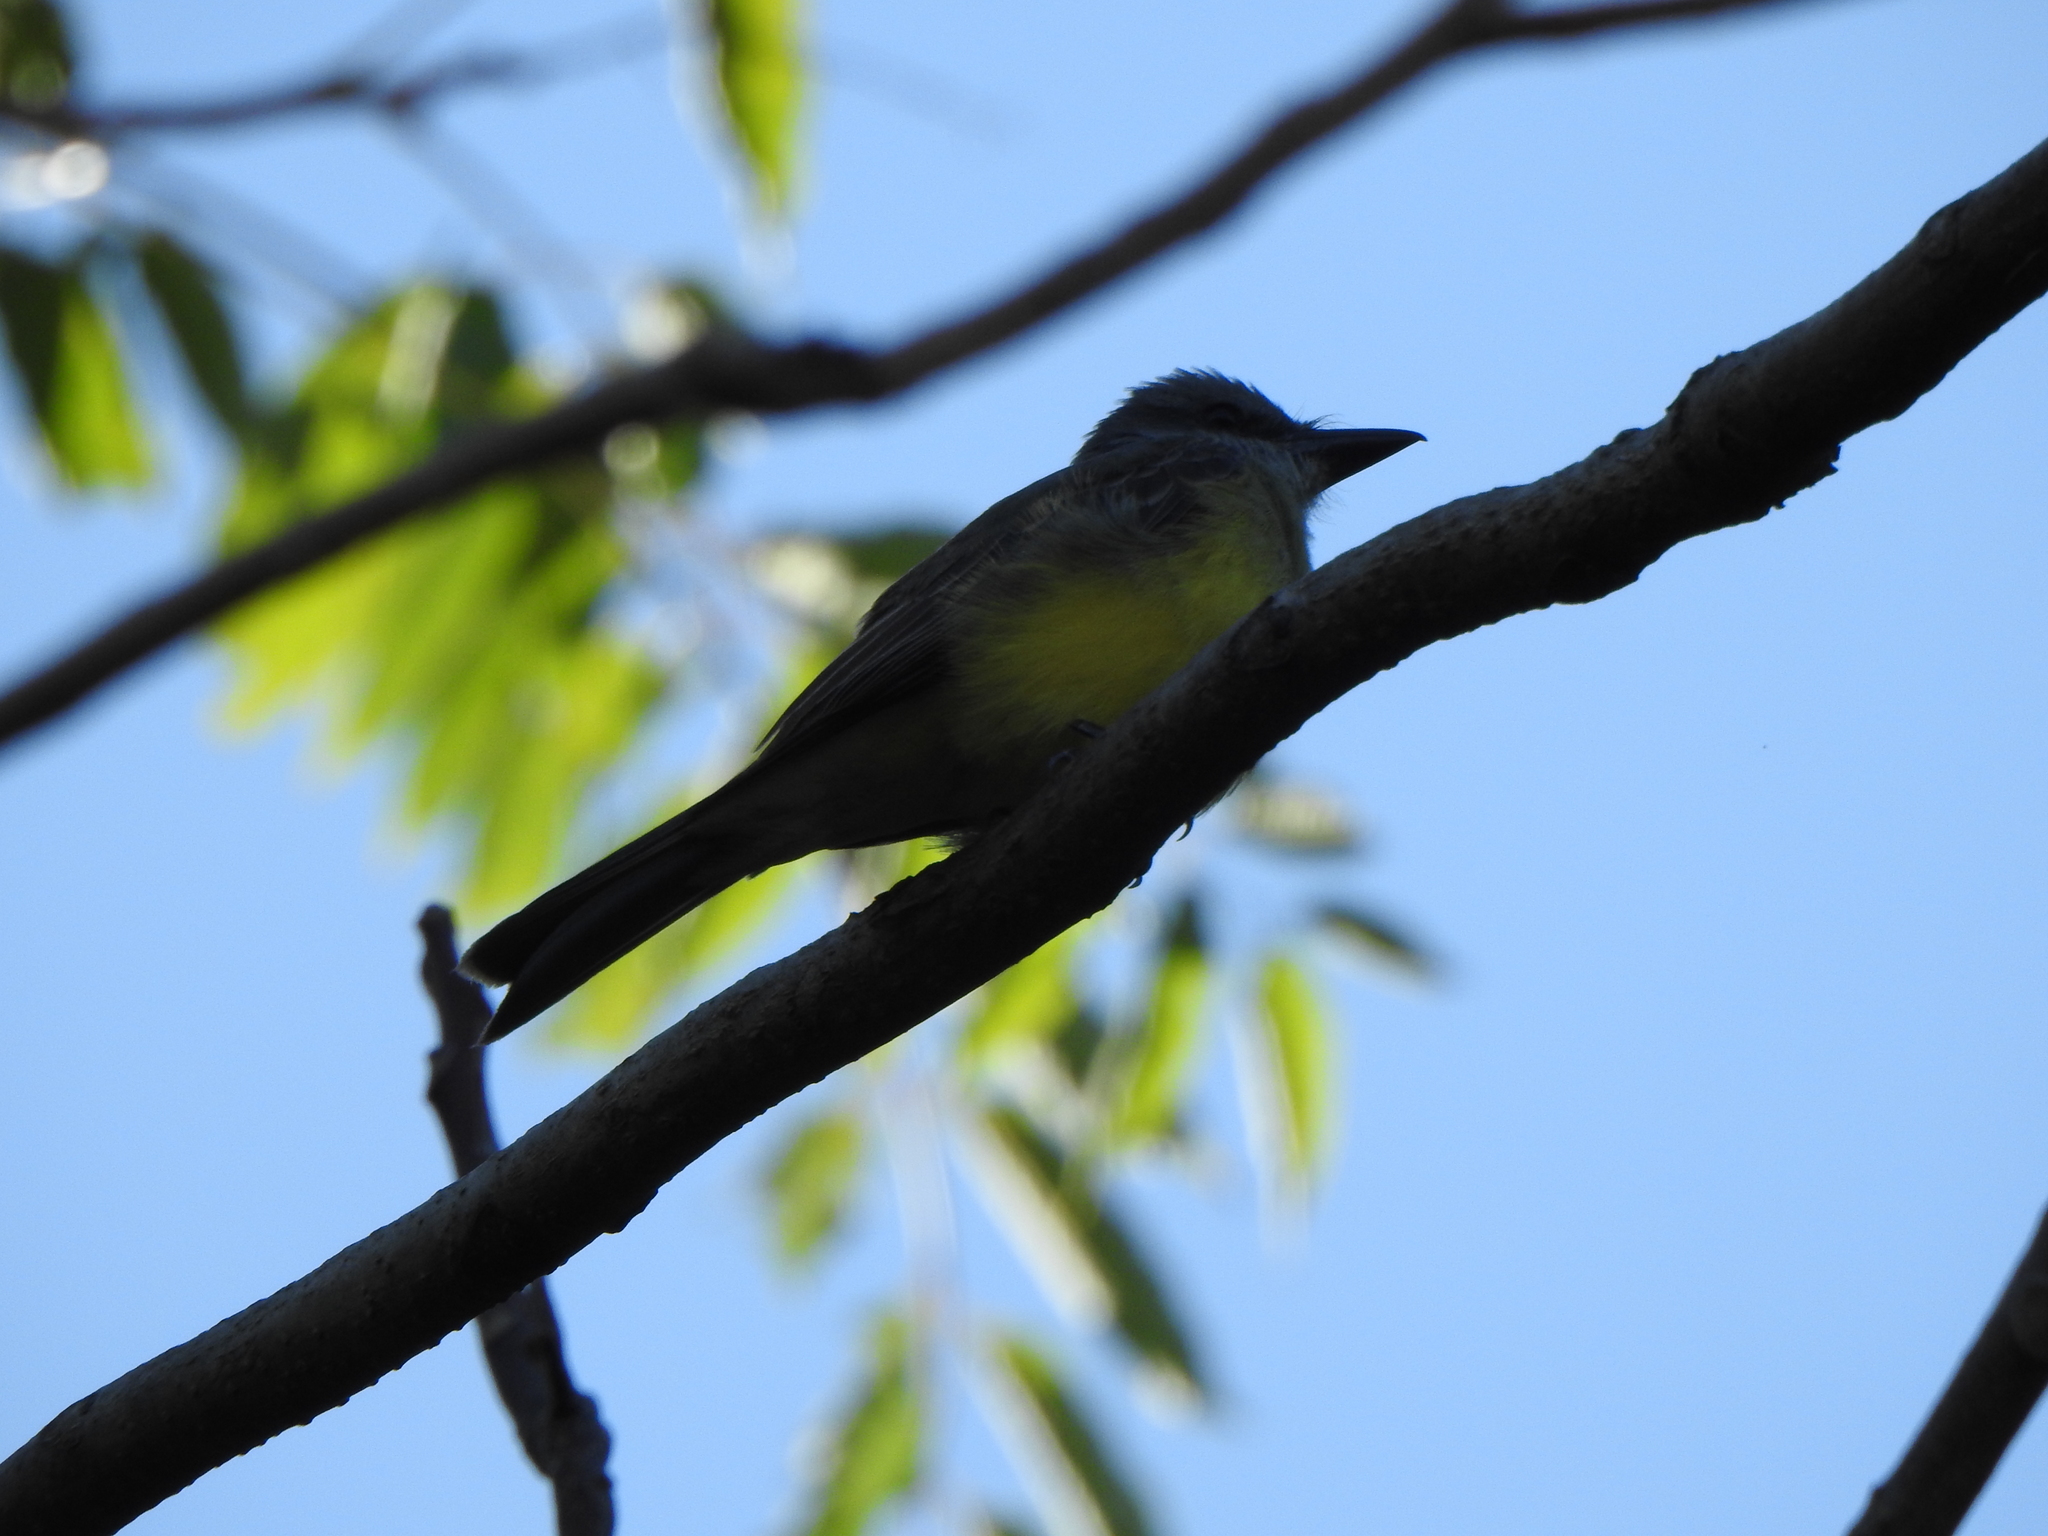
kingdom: Animalia
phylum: Chordata
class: Aves
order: Passeriformes
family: Tyrannidae
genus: Tyrannus
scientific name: Tyrannus melancholicus
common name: Tropical kingbird
